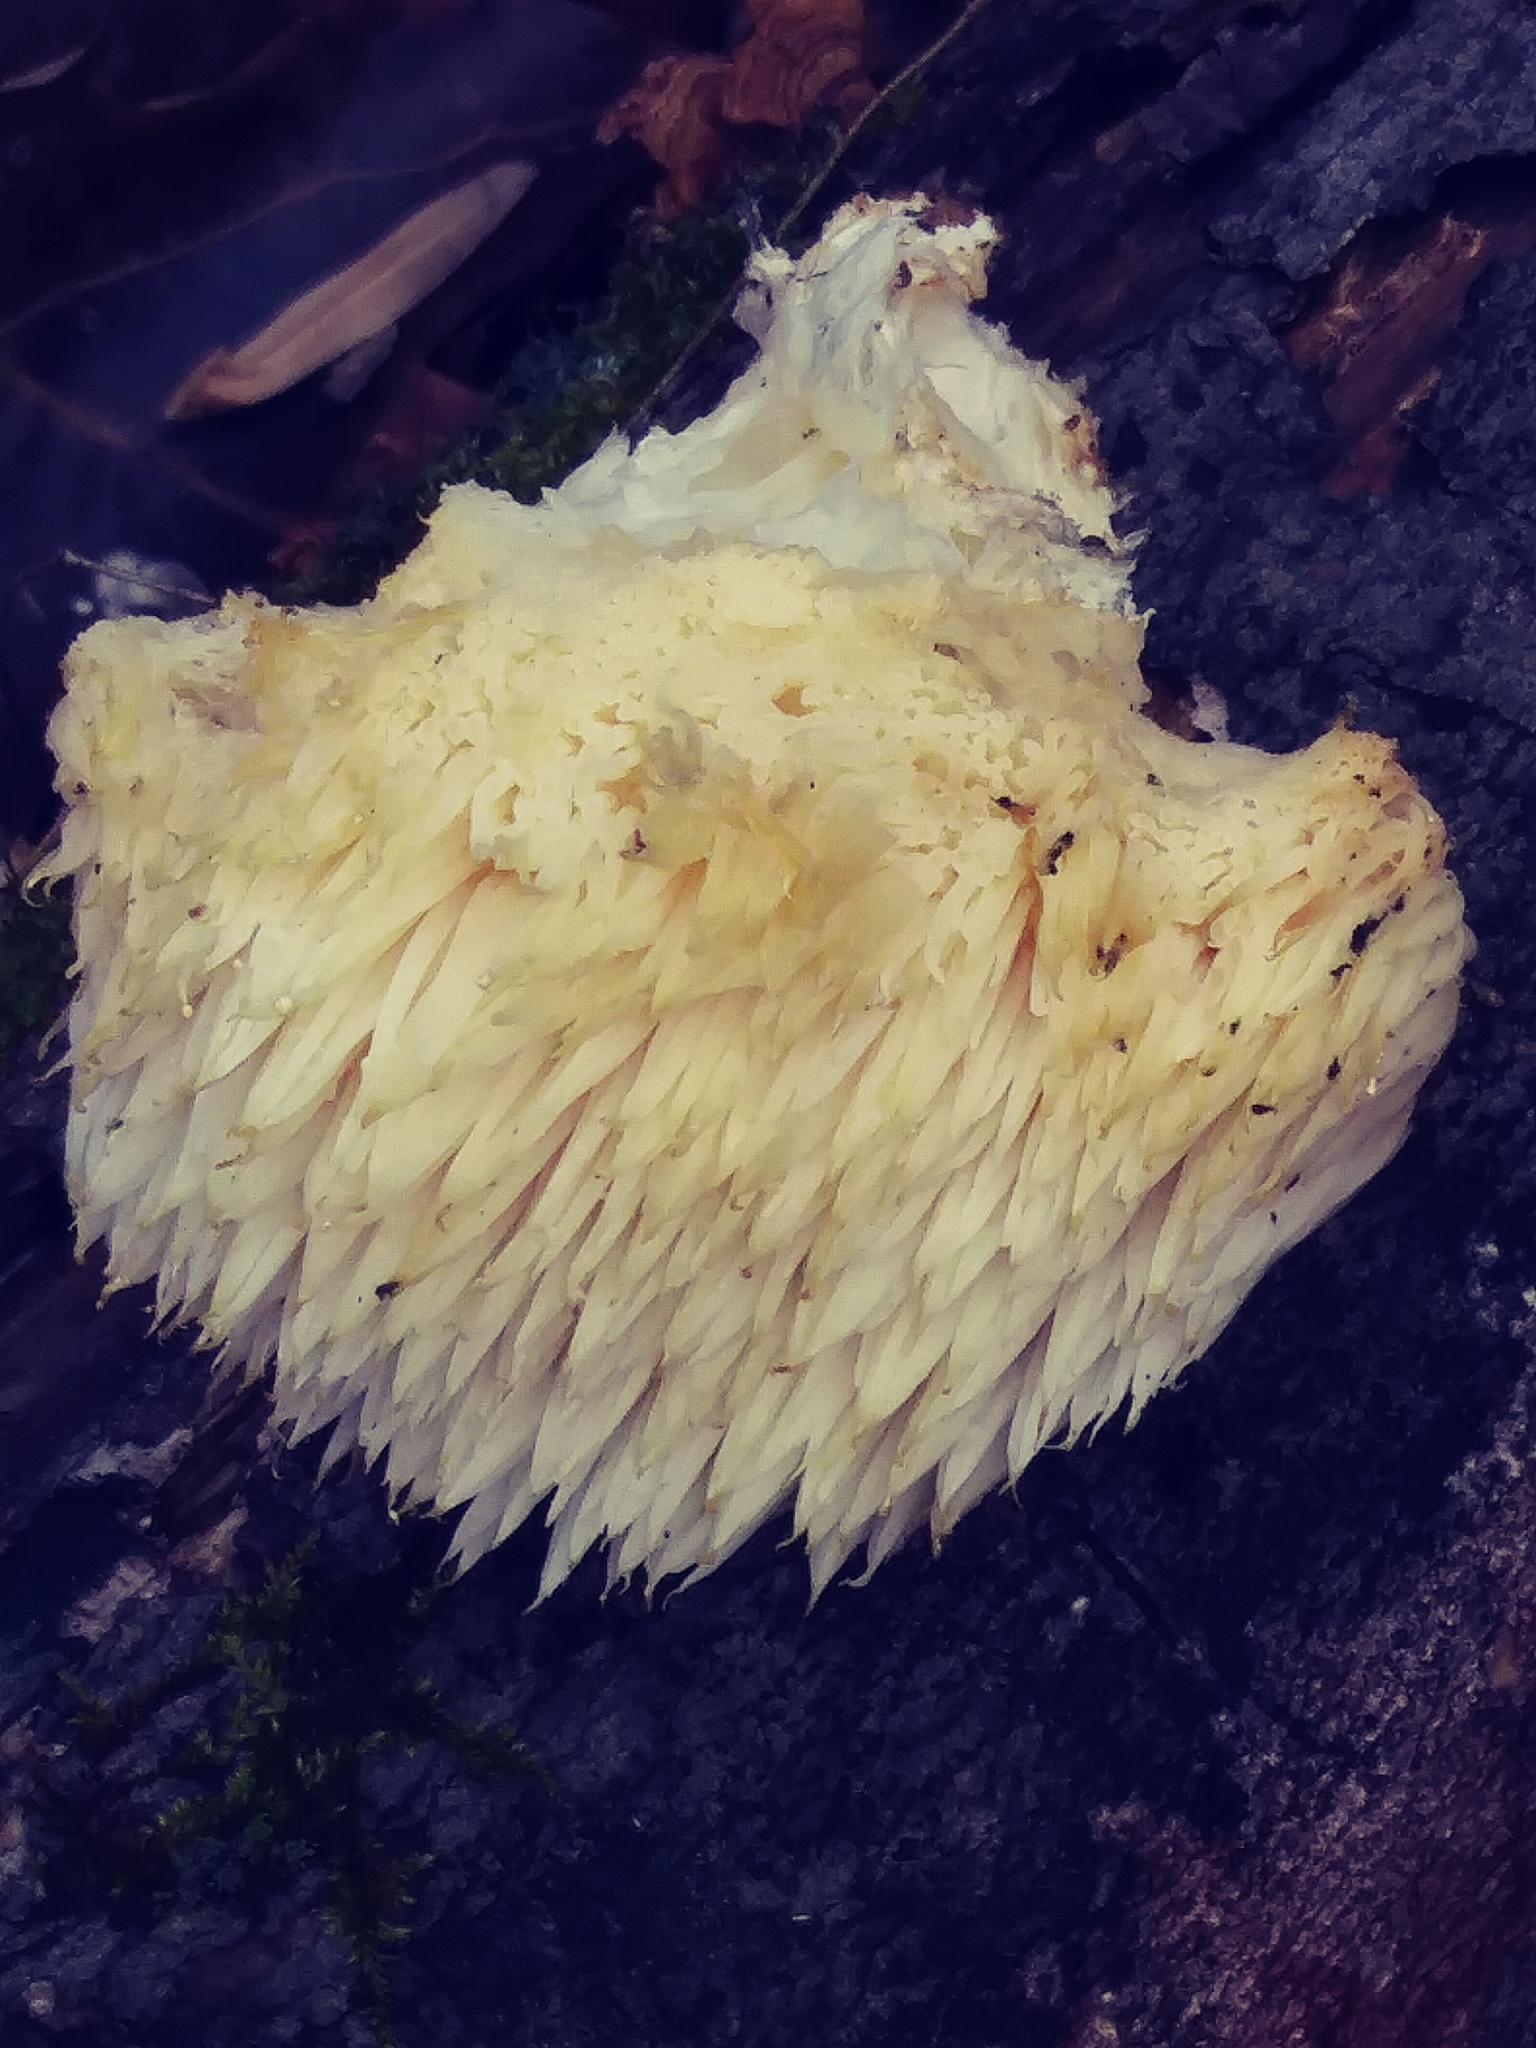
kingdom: Fungi
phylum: Basidiomycota
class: Agaricomycetes
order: Russulales
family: Hericiaceae
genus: Hericium
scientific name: Hericium erinaceus
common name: Bearded tooth
